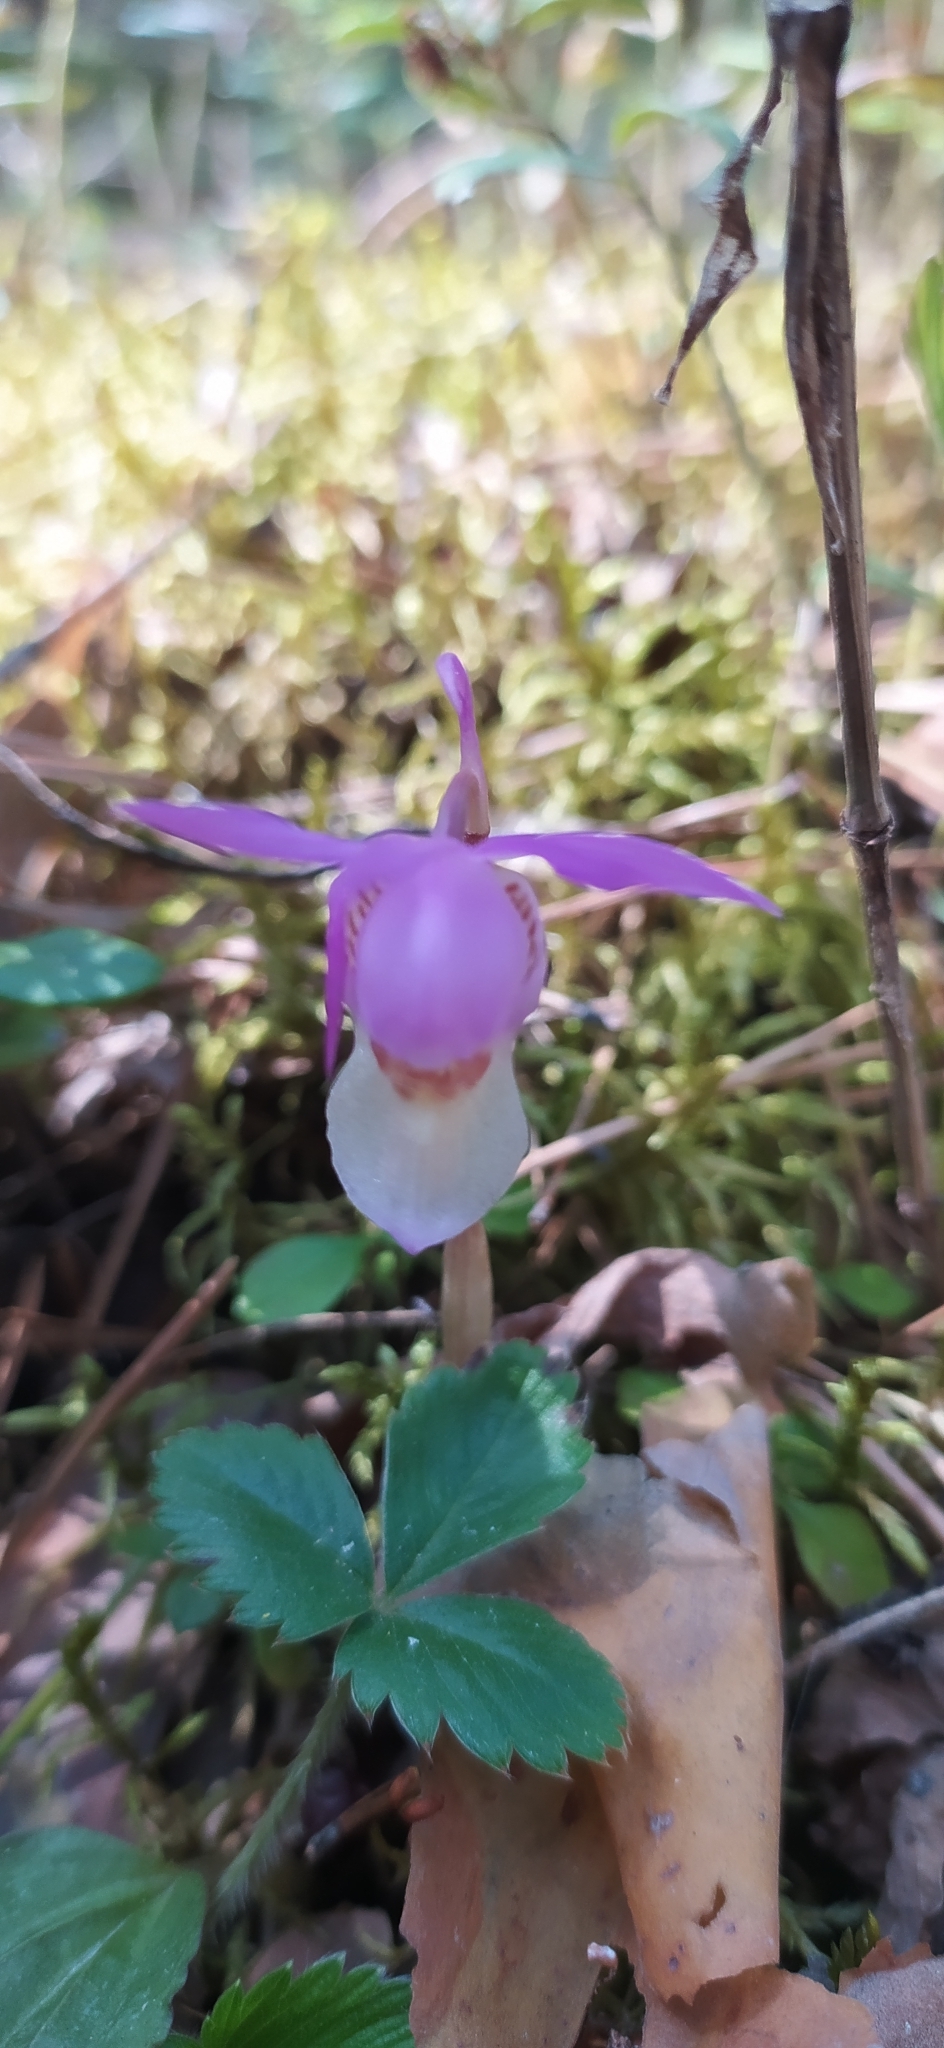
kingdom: Plantae
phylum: Tracheophyta
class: Liliopsida
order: Asparagales
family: Orchidaceae
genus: Calypso
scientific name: Calypso bulbosa
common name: Calypso
